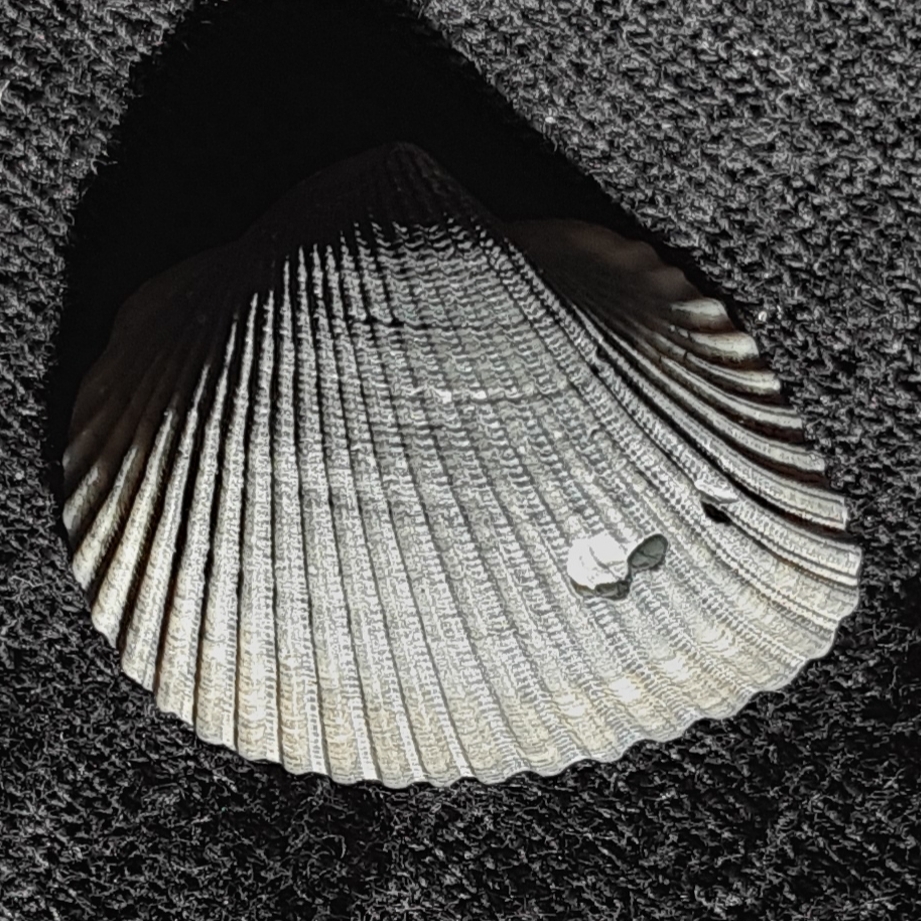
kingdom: Animalia
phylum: Mollusca
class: Bivalvia
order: Arcida
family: Noetiidae
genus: Noetia
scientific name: Noetia ponderosa
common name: Ponderous ark
